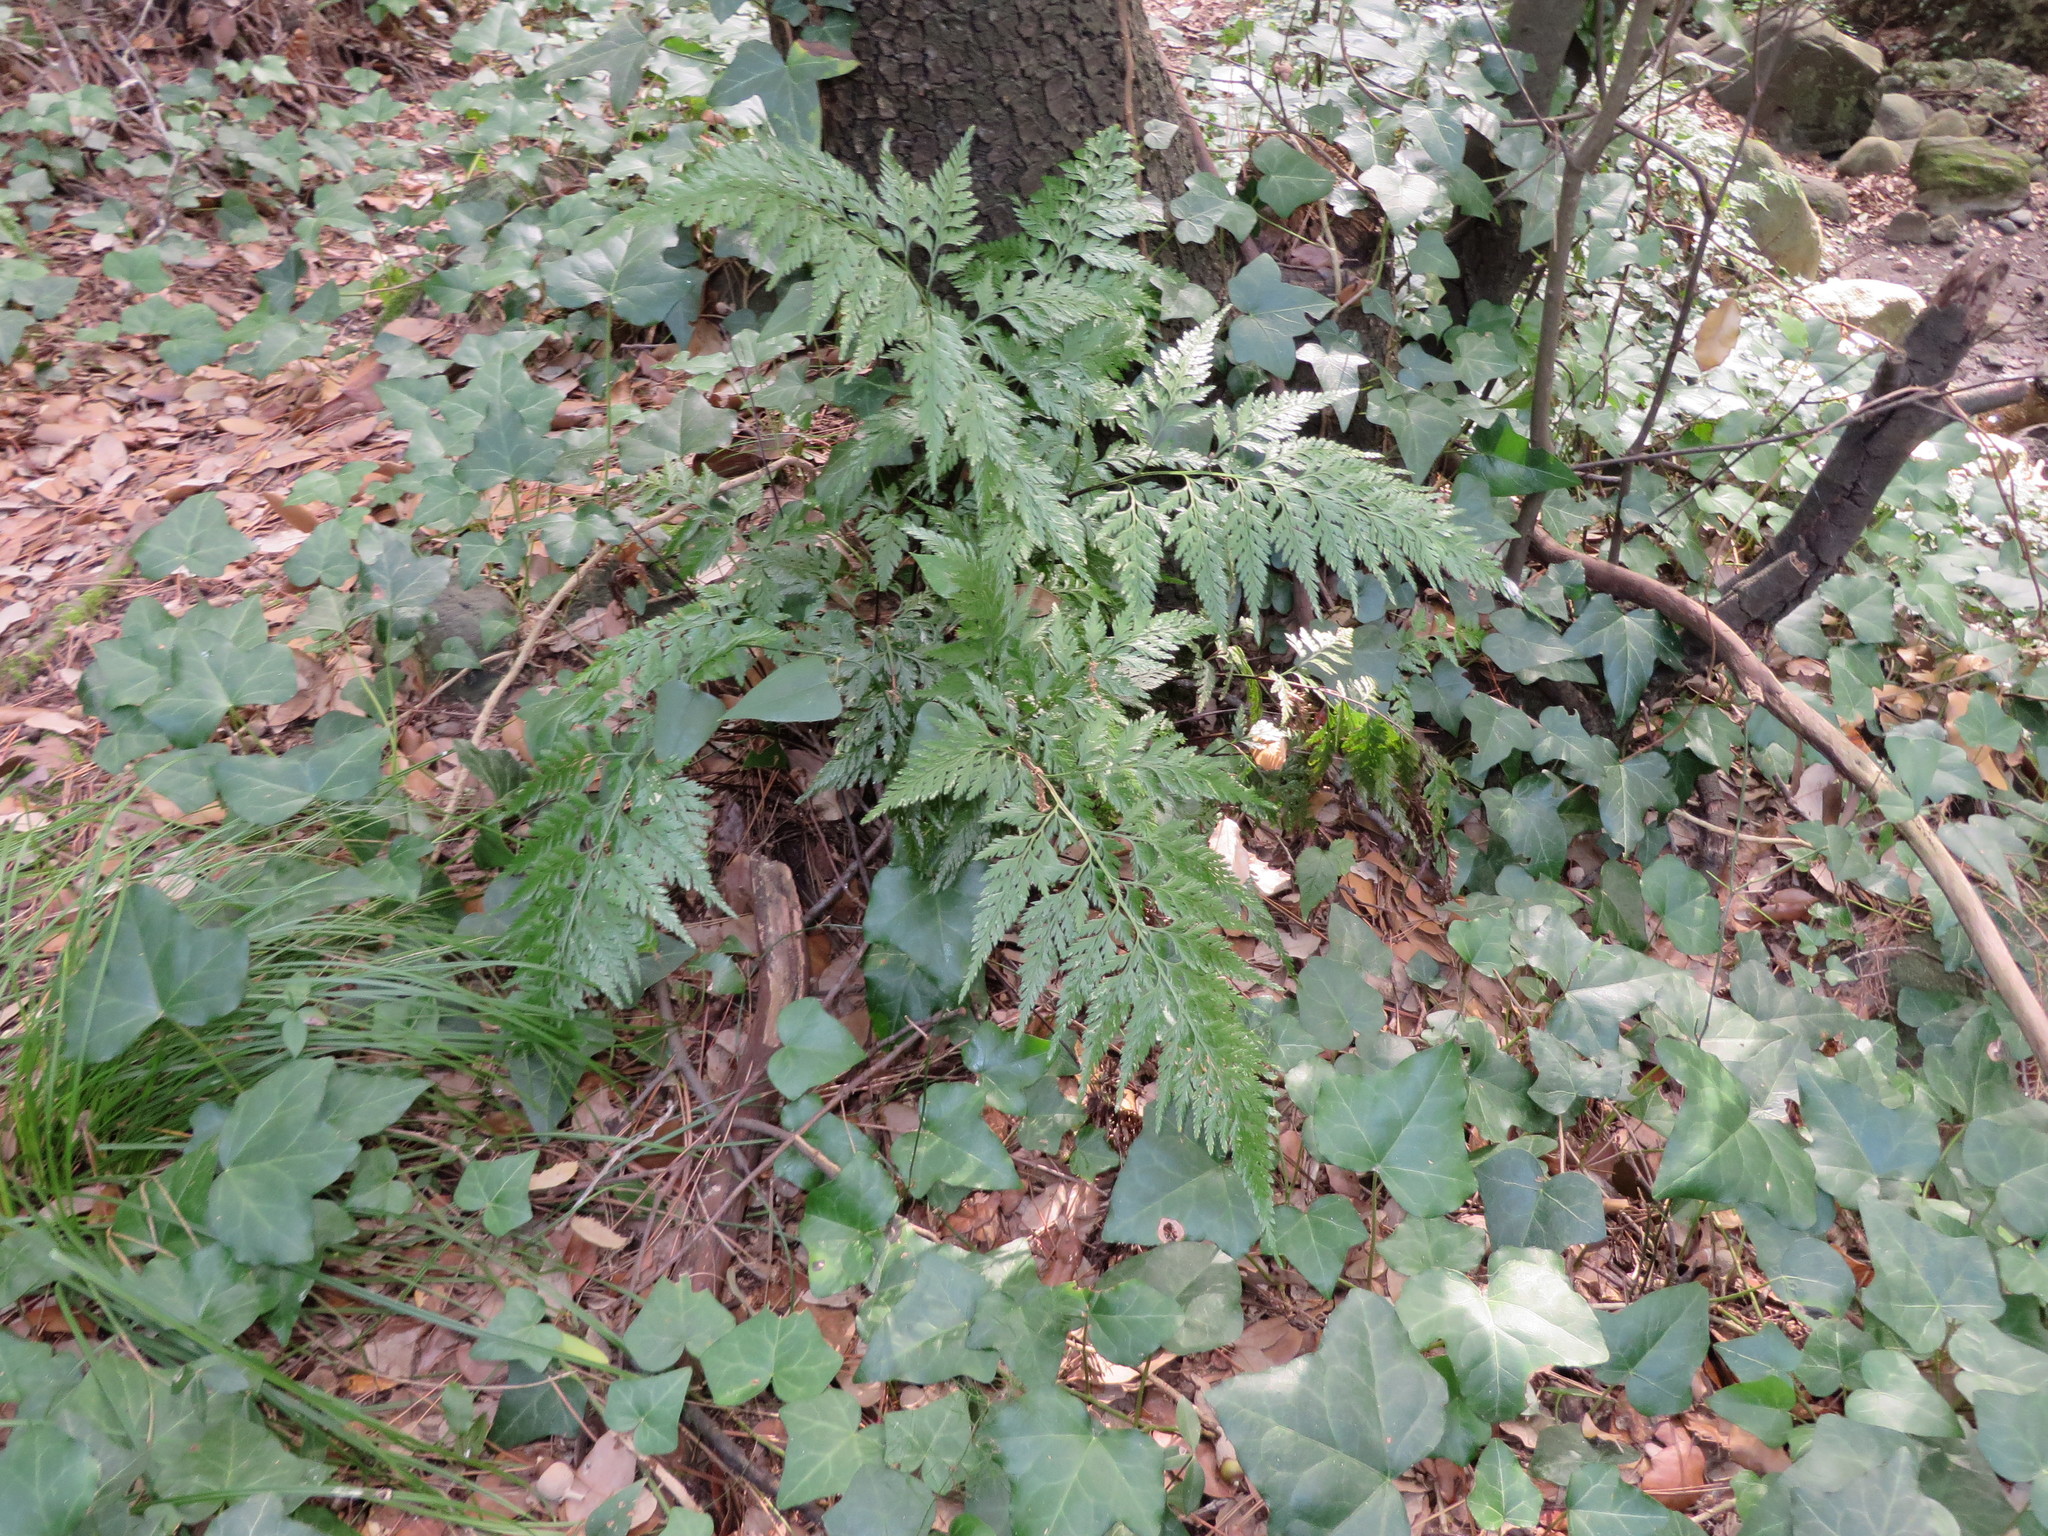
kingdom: Plantae
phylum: Tracheophyta
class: Polypodiopsida
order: Polypodiales
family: Aspleniaceae
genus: Asplenium
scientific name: Asplenium onopteris
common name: Irish spleenwort
